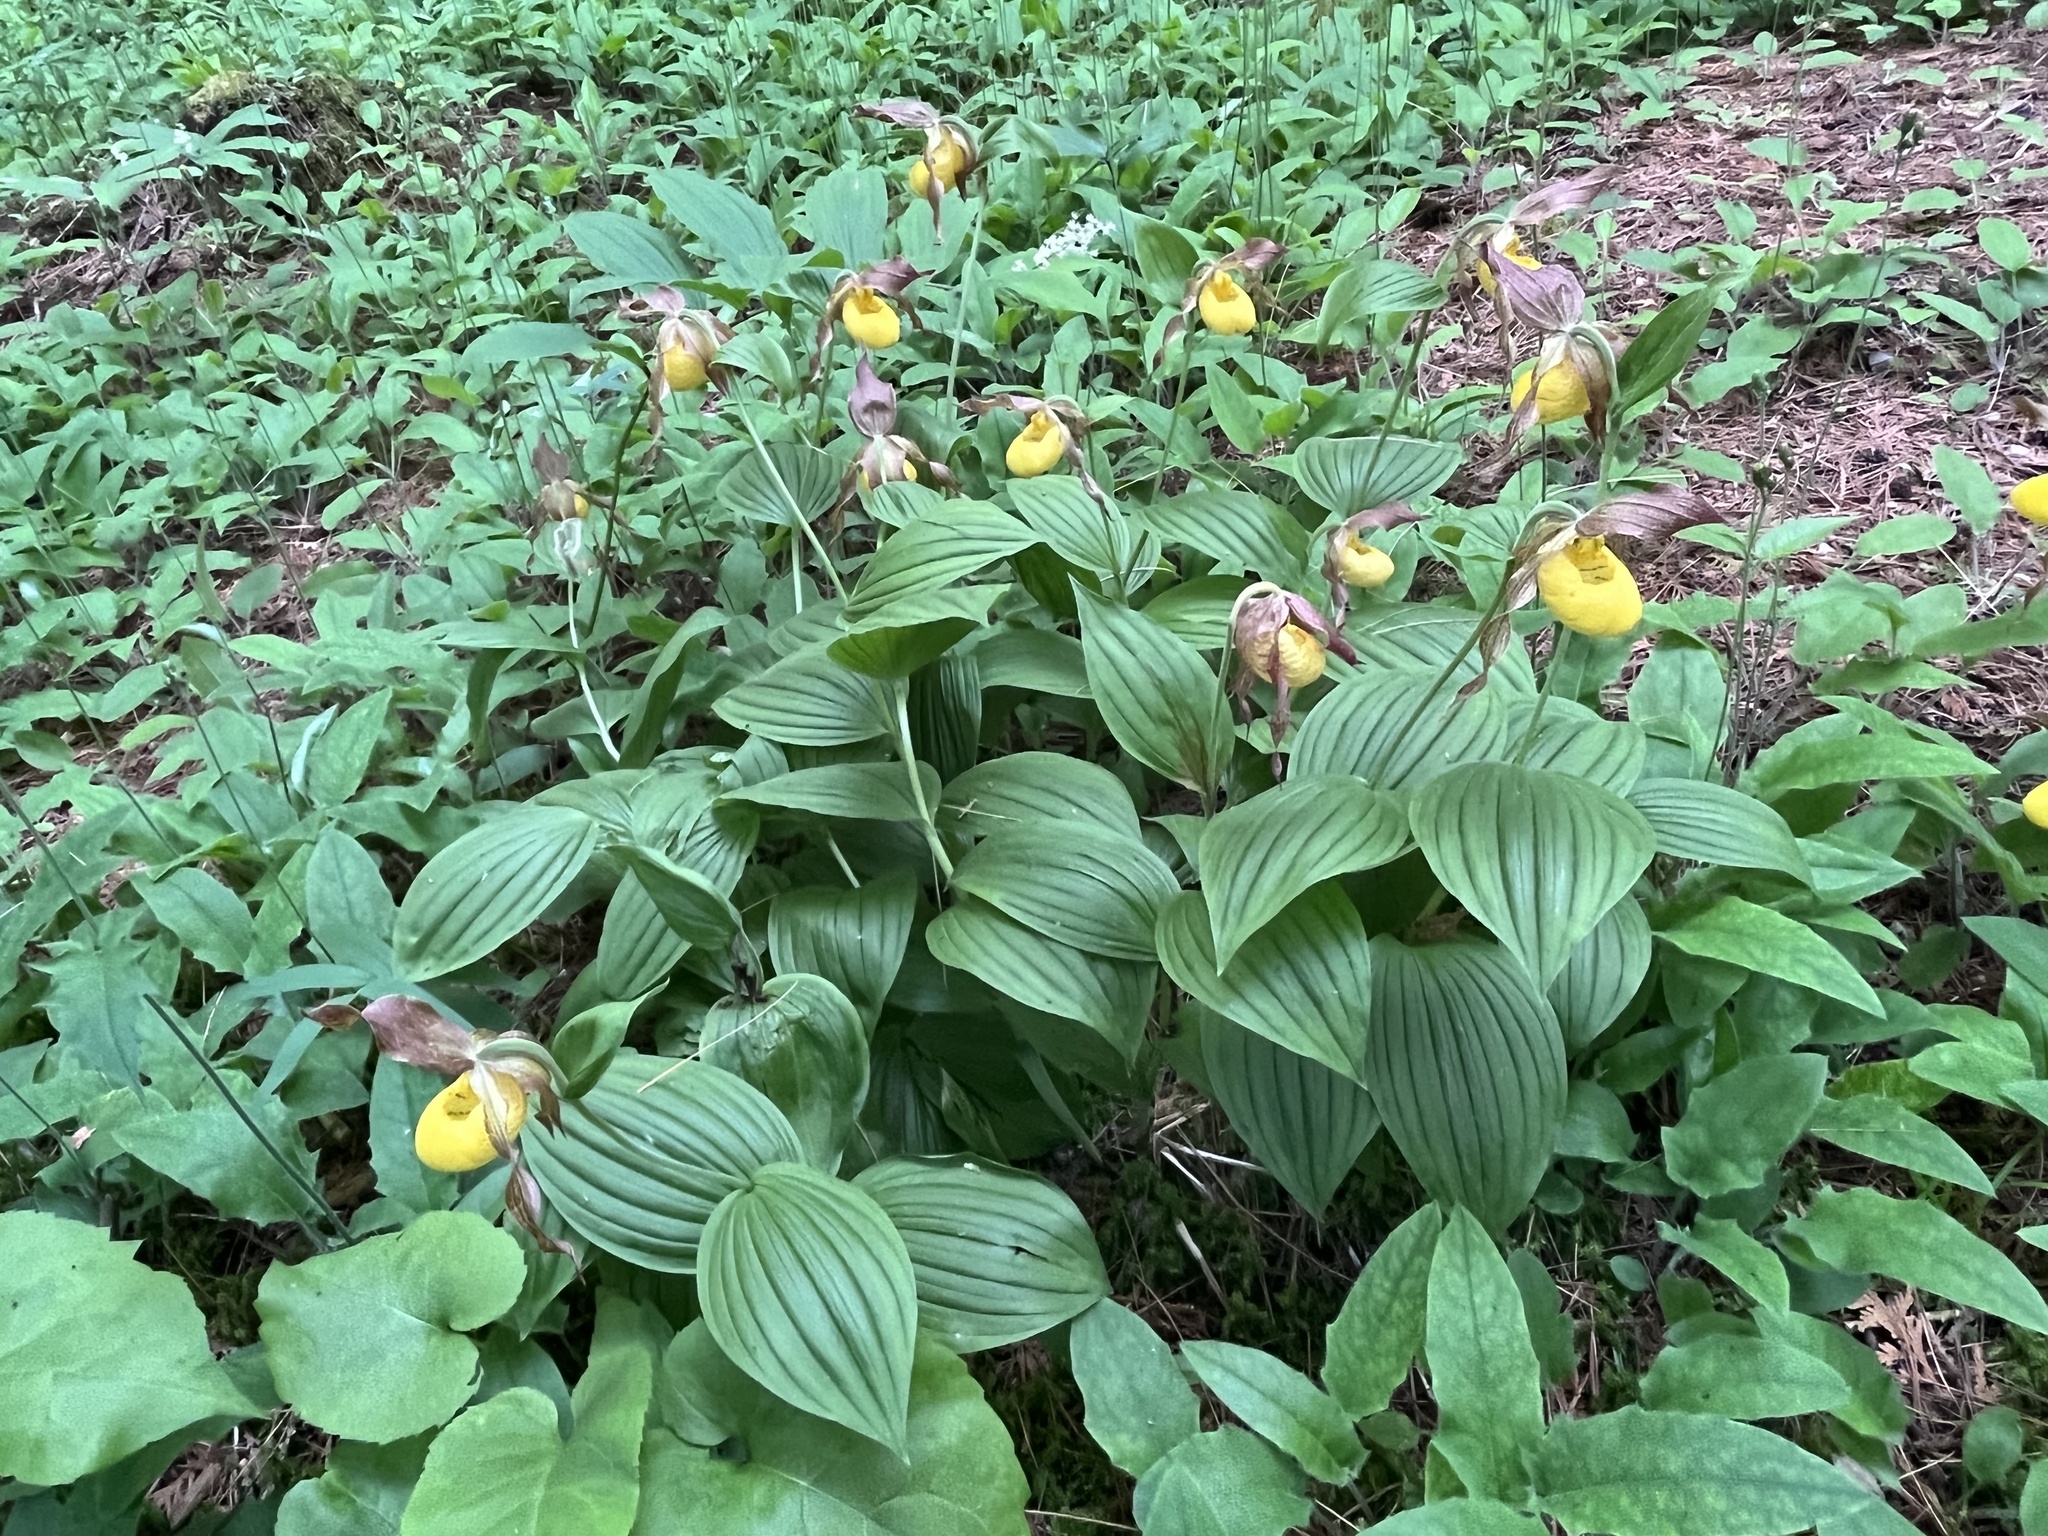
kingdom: Plantae
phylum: Tracheophyta
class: Liliopsida
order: Asparagales
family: Orchidaceae
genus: Cypripedium
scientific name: Cypripedium parviflorum
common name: American yellow lady's-slipper
